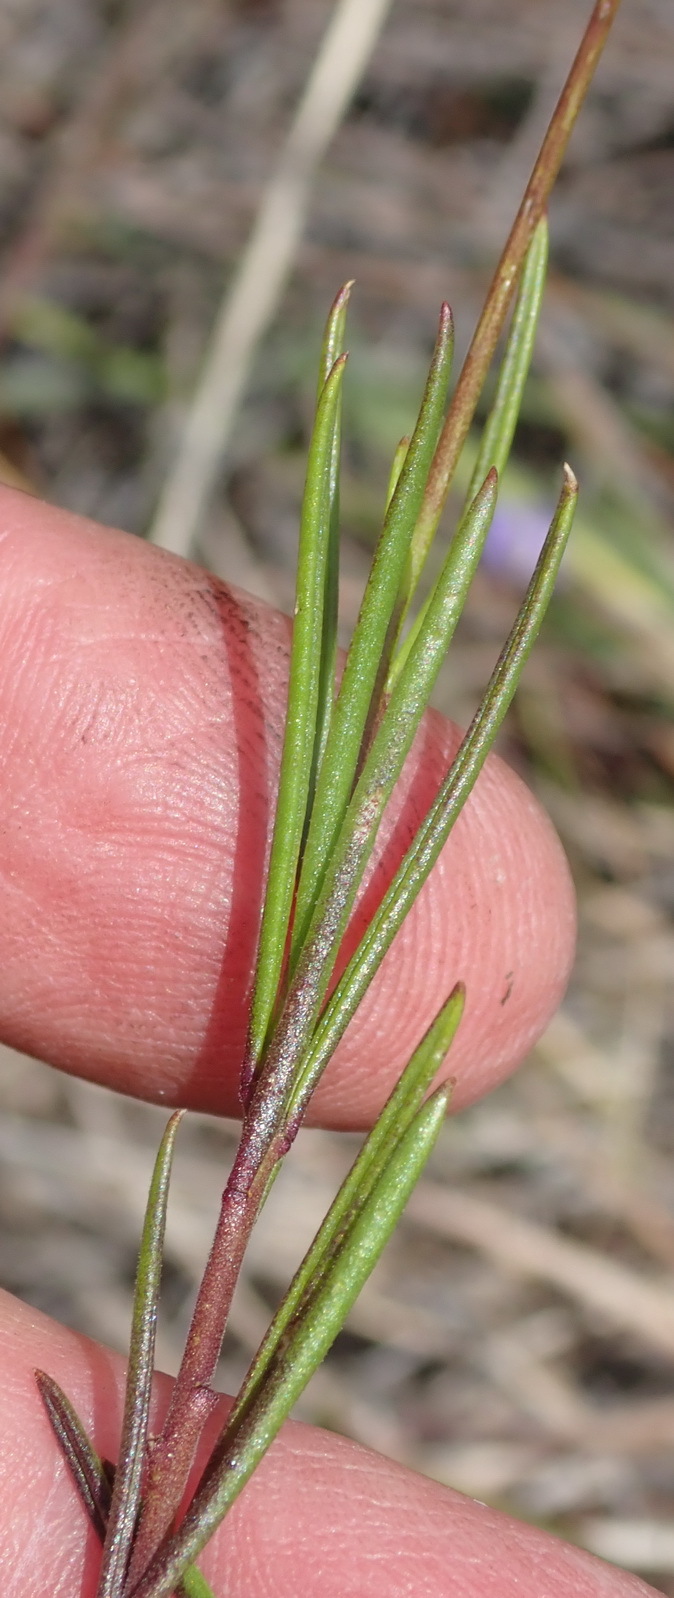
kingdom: Plantae
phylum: Tracheophyta
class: Magnoliopsida
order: Brassicales
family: Brassicaceae
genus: Heliophila
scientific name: Heliophila subulata
